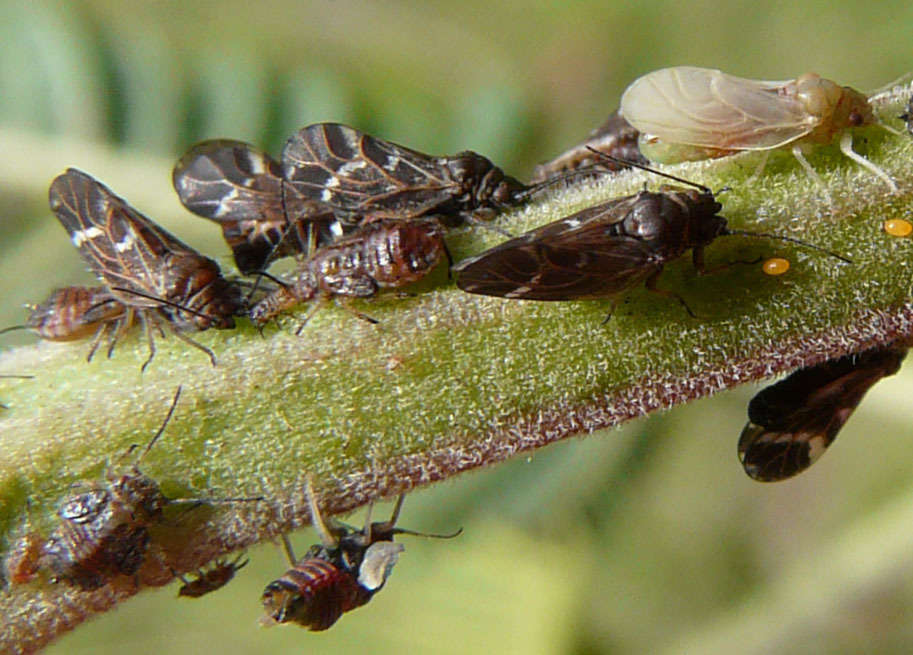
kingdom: Animalia
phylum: Arthropoda
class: Insecta
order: Hemiptera
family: Psyllidae
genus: Acizzia
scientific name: Acizzia acaciaedecurrentis
